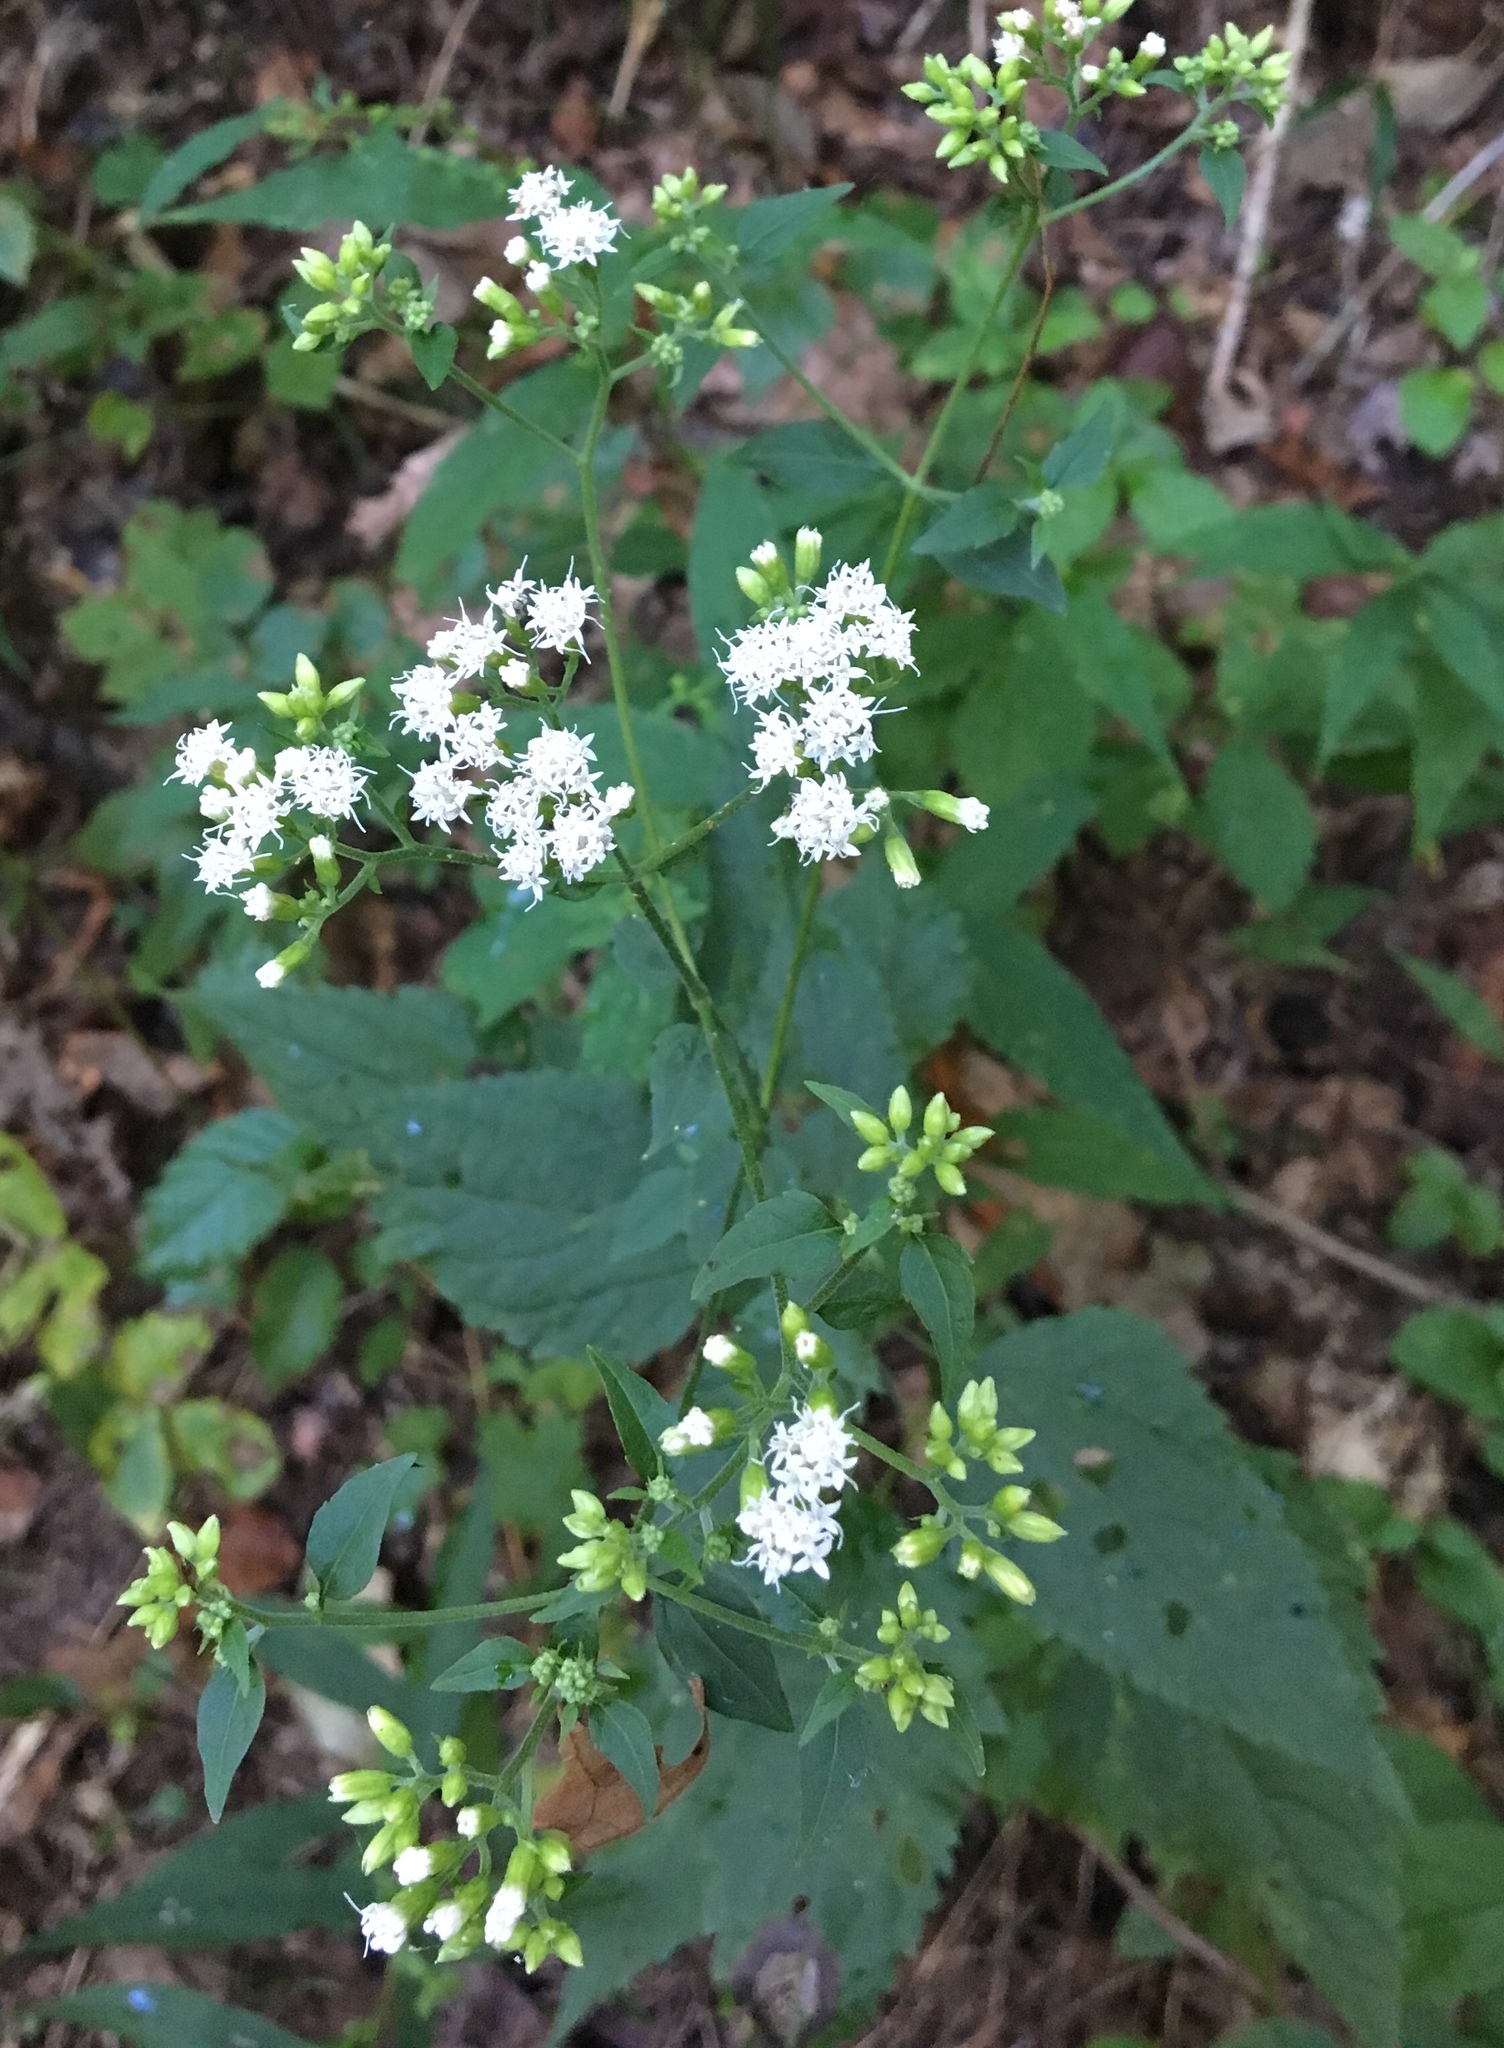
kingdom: Plantae
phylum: Tracheophyta
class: Magnoliopsida
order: Asterales
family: Asteraceae
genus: Ageratina
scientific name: Ageratina altissima
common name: White snakeroot
